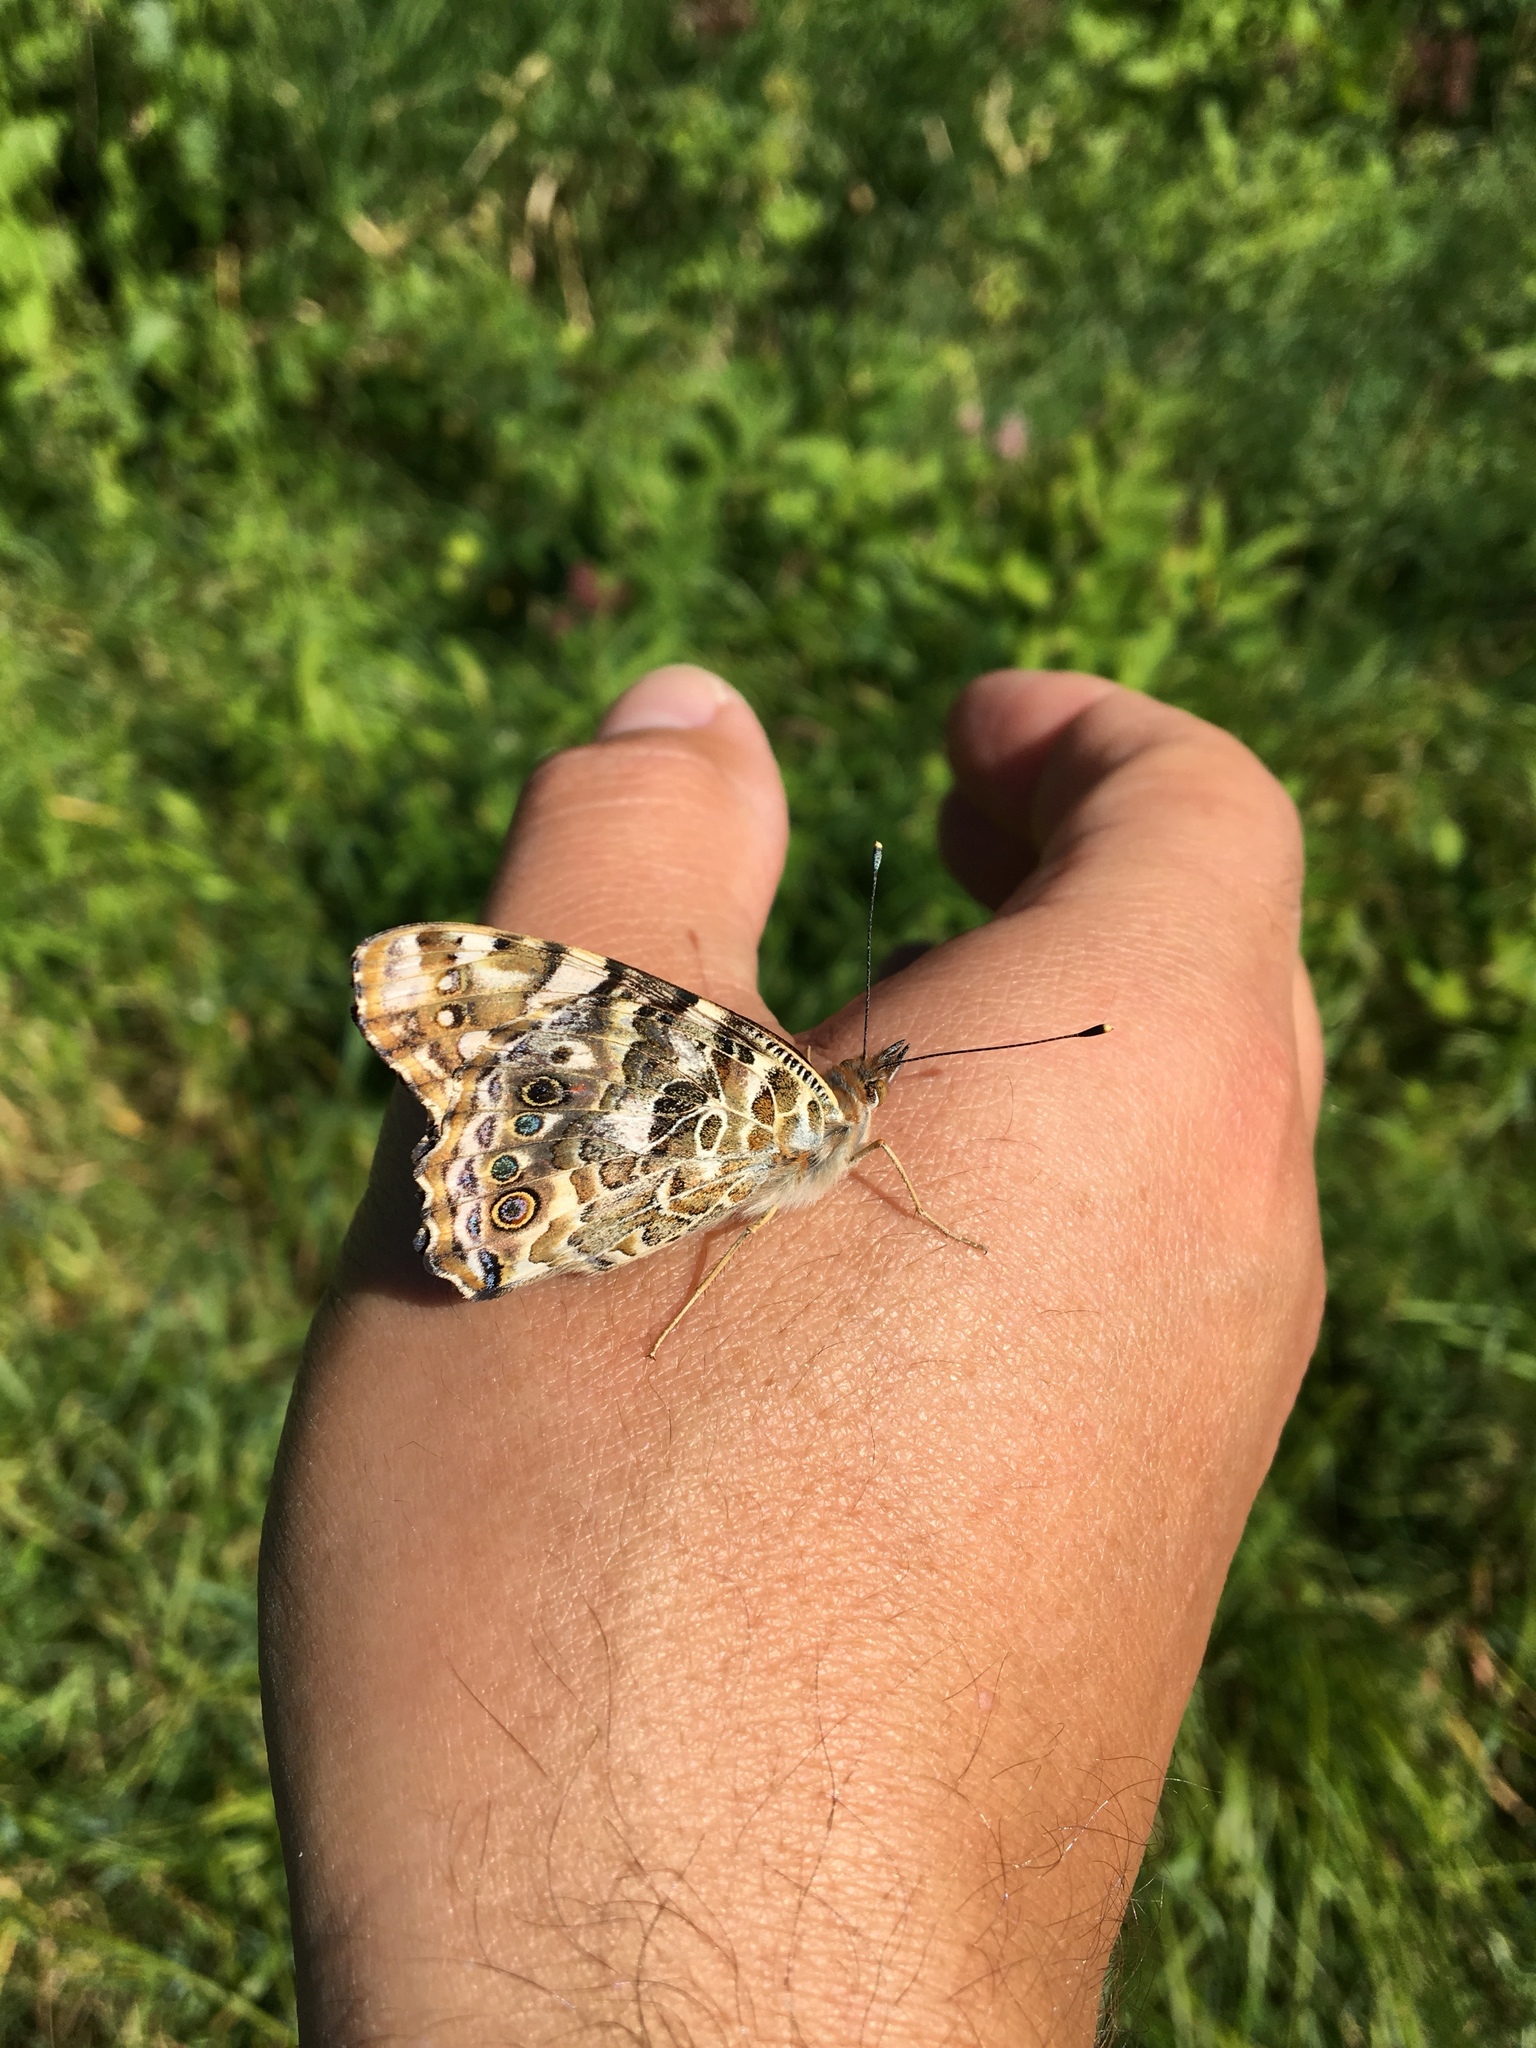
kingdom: Animalia
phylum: Arthropoda
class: Insecta
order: Lepidoptera
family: Nymphalidae
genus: Vanessa
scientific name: Vanessa cardui
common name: Painted lady
